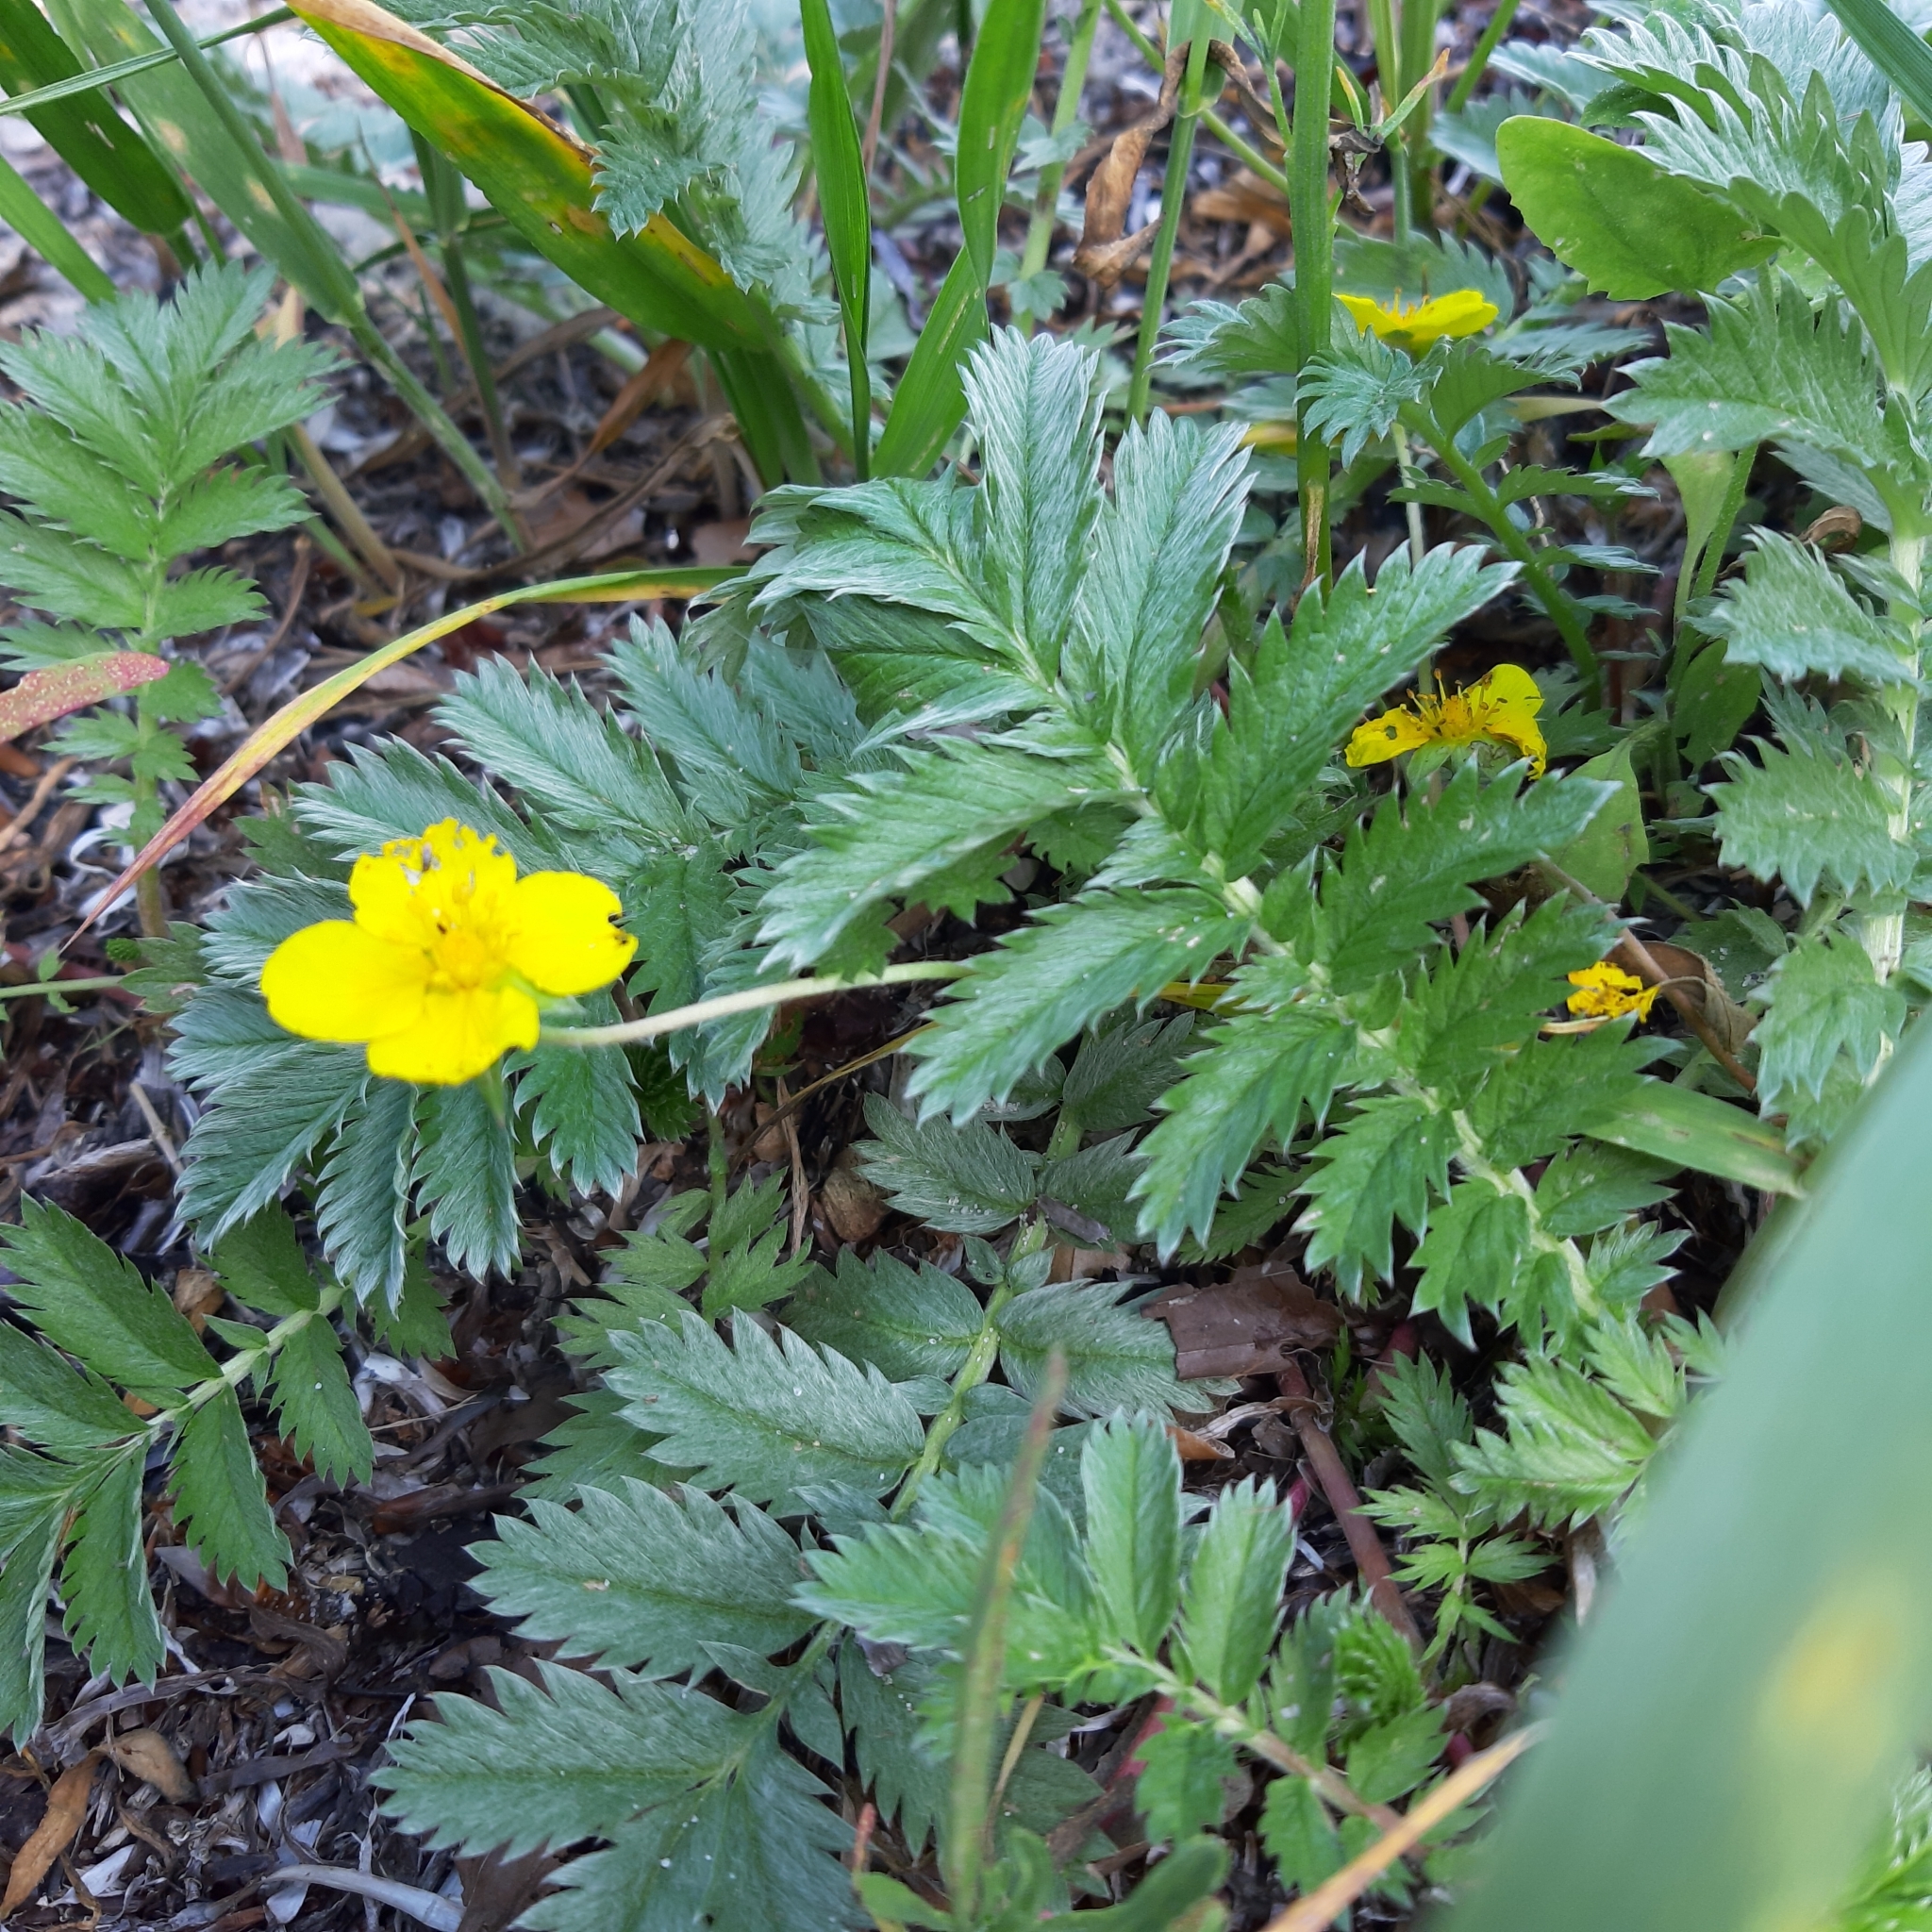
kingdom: Plantae
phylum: Tracheophyta
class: Magnoliopsida
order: Rosales
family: Rosaceae
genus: Argentina
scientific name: Argentina anserina
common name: Common silverweed
